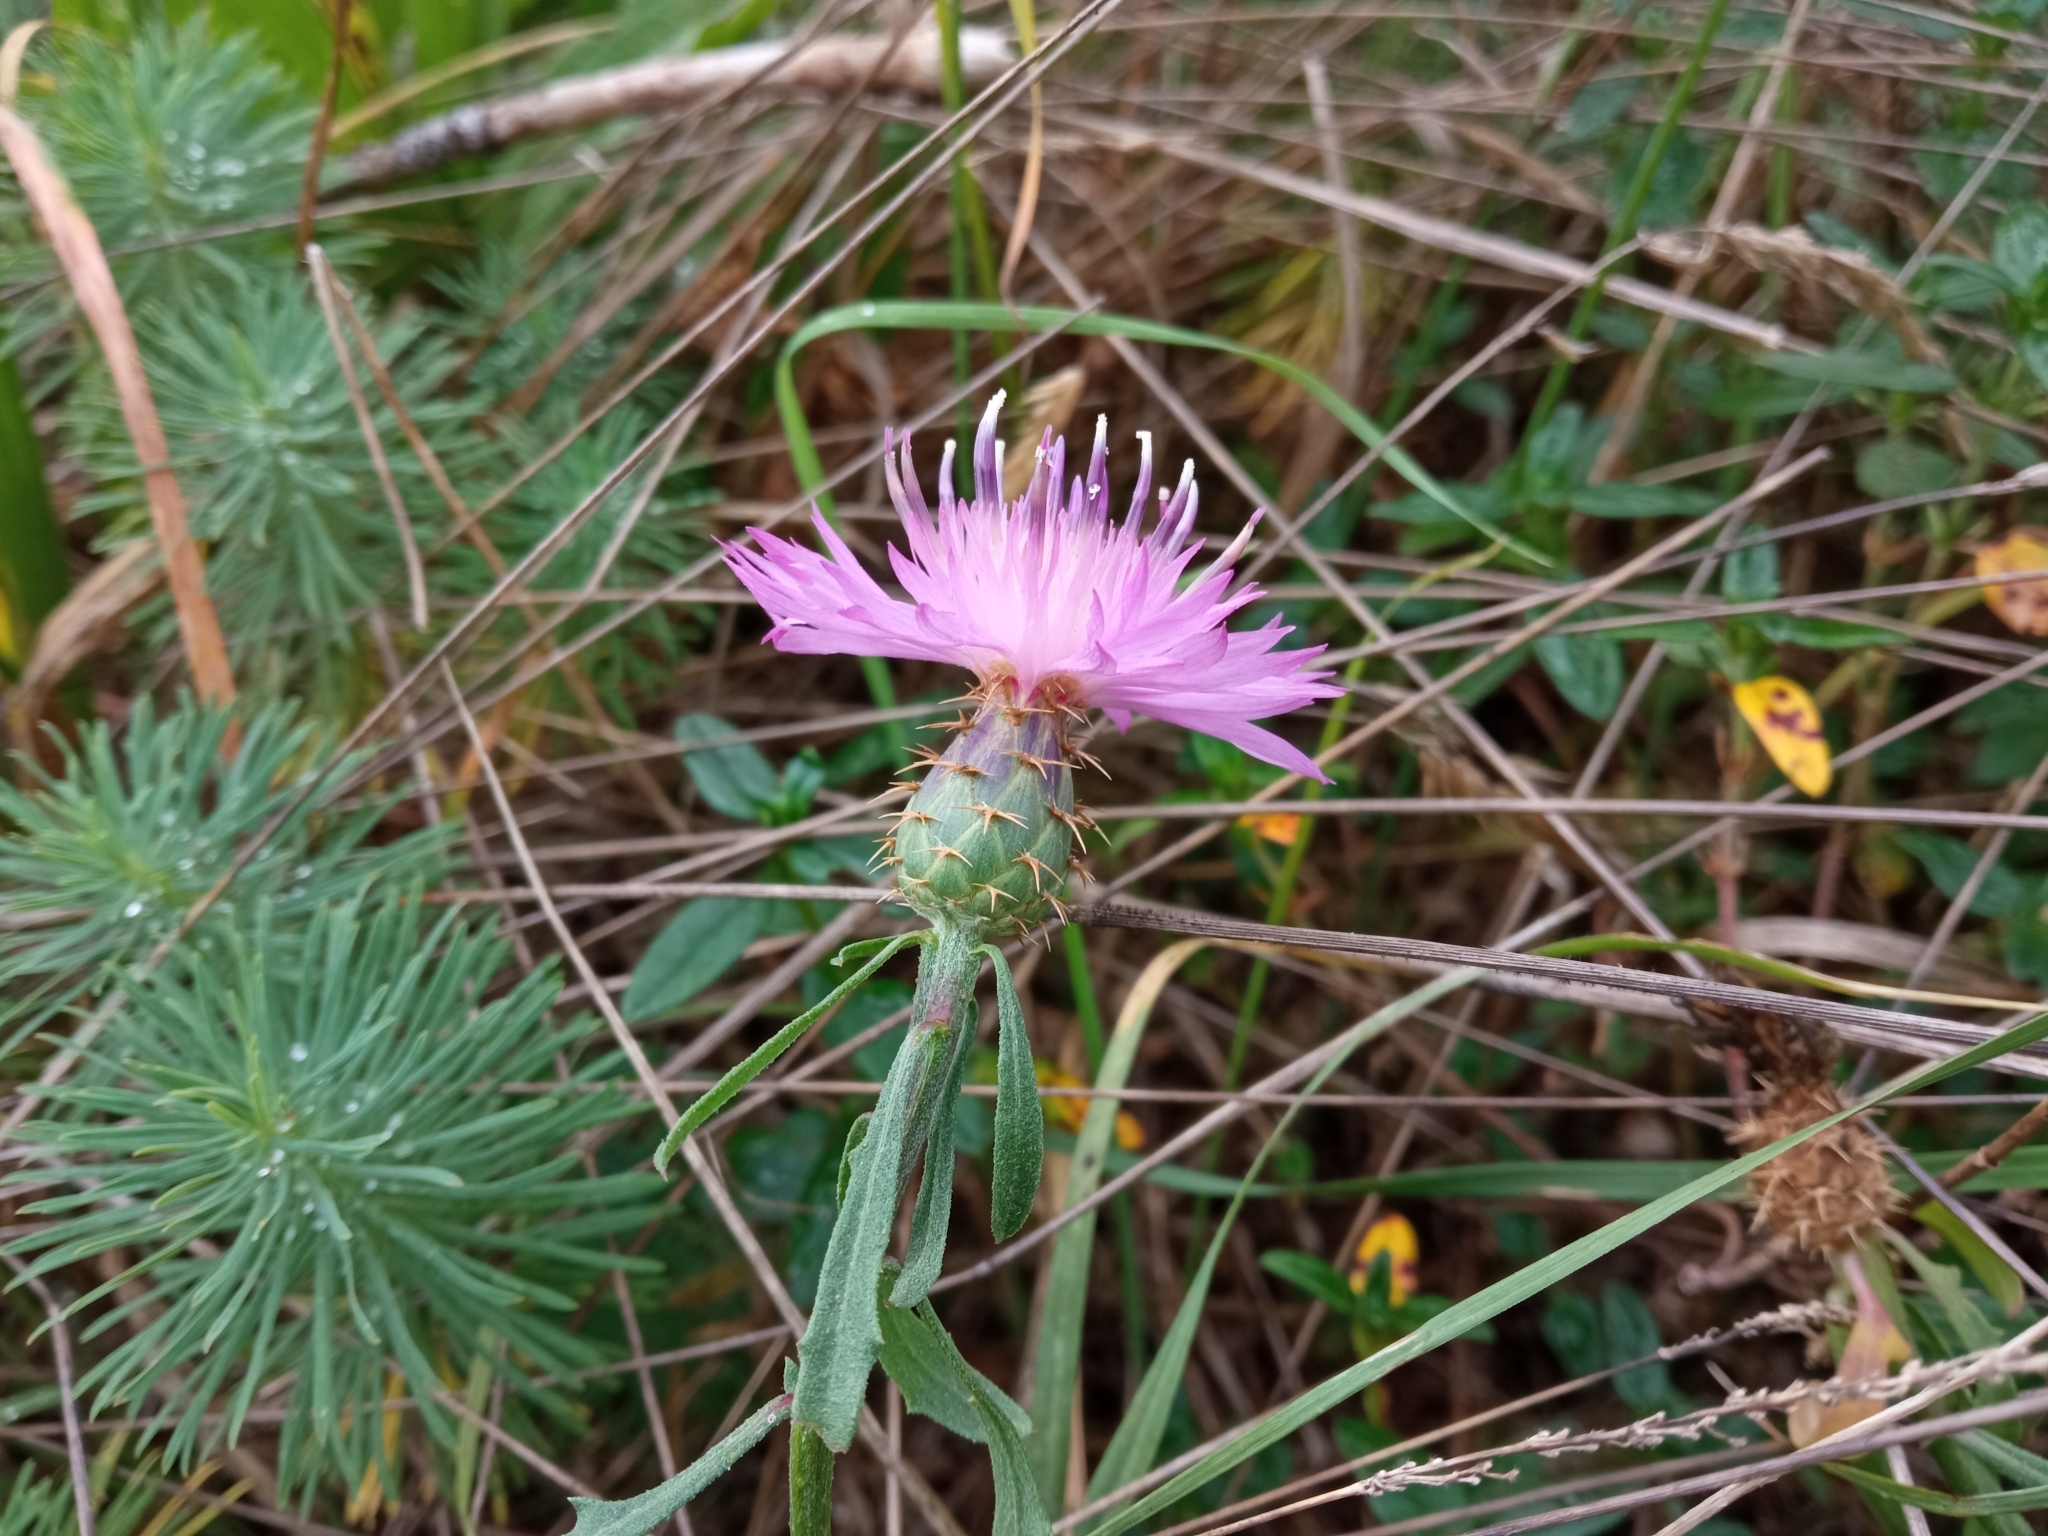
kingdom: Plantae
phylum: Tracheophyta
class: Magnoliopsida
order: Asterales
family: Asteraceae
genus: Centaurea
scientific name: Centaurea aspera
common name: Rough star-thistle
